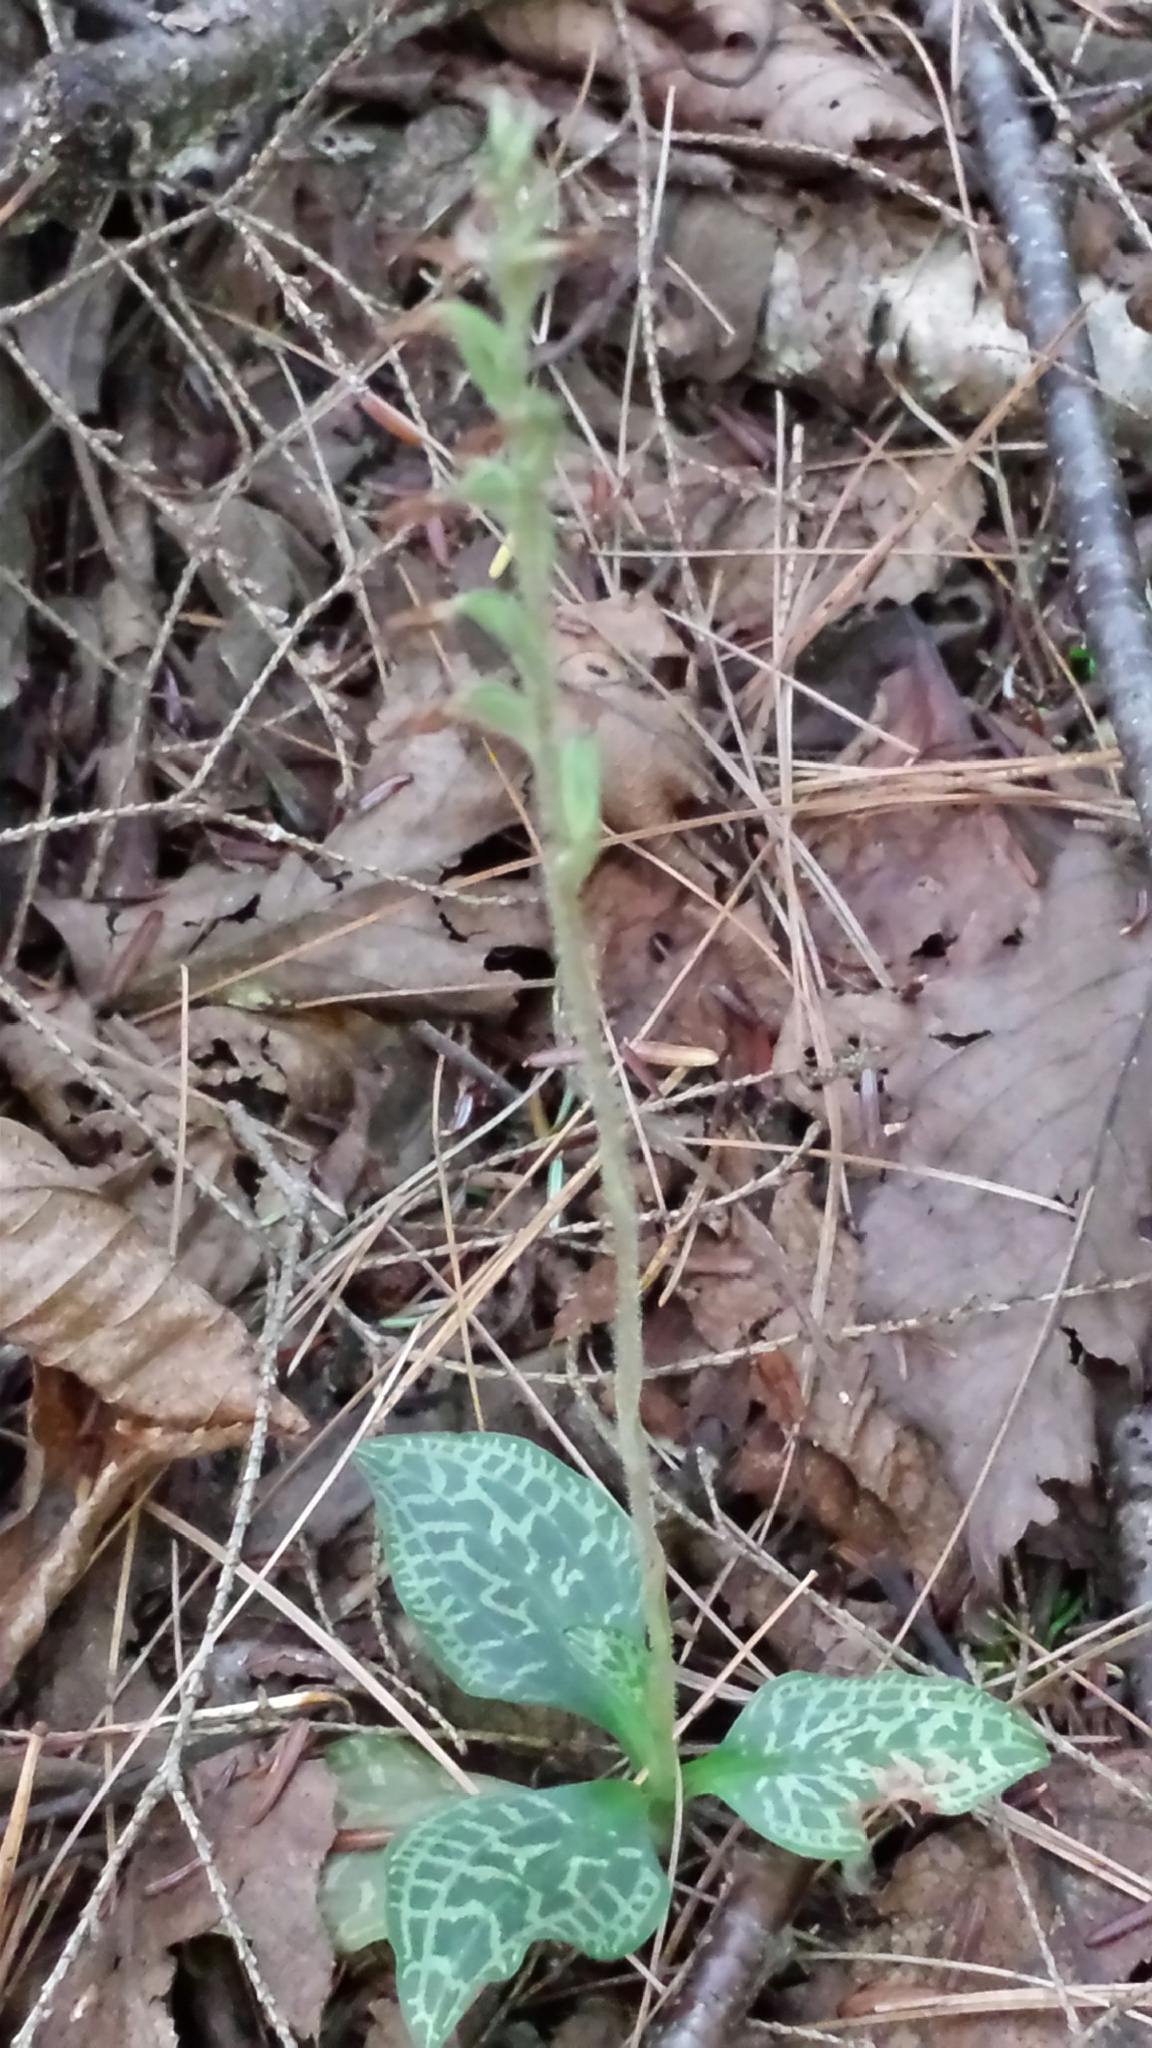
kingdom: Plantae
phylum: Tracheophyta
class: Liliopsida
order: Asparagales
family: Orchidaceae
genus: Goodyera
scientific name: Goodyera tesselata
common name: Checkered rattlesnake-plantain
